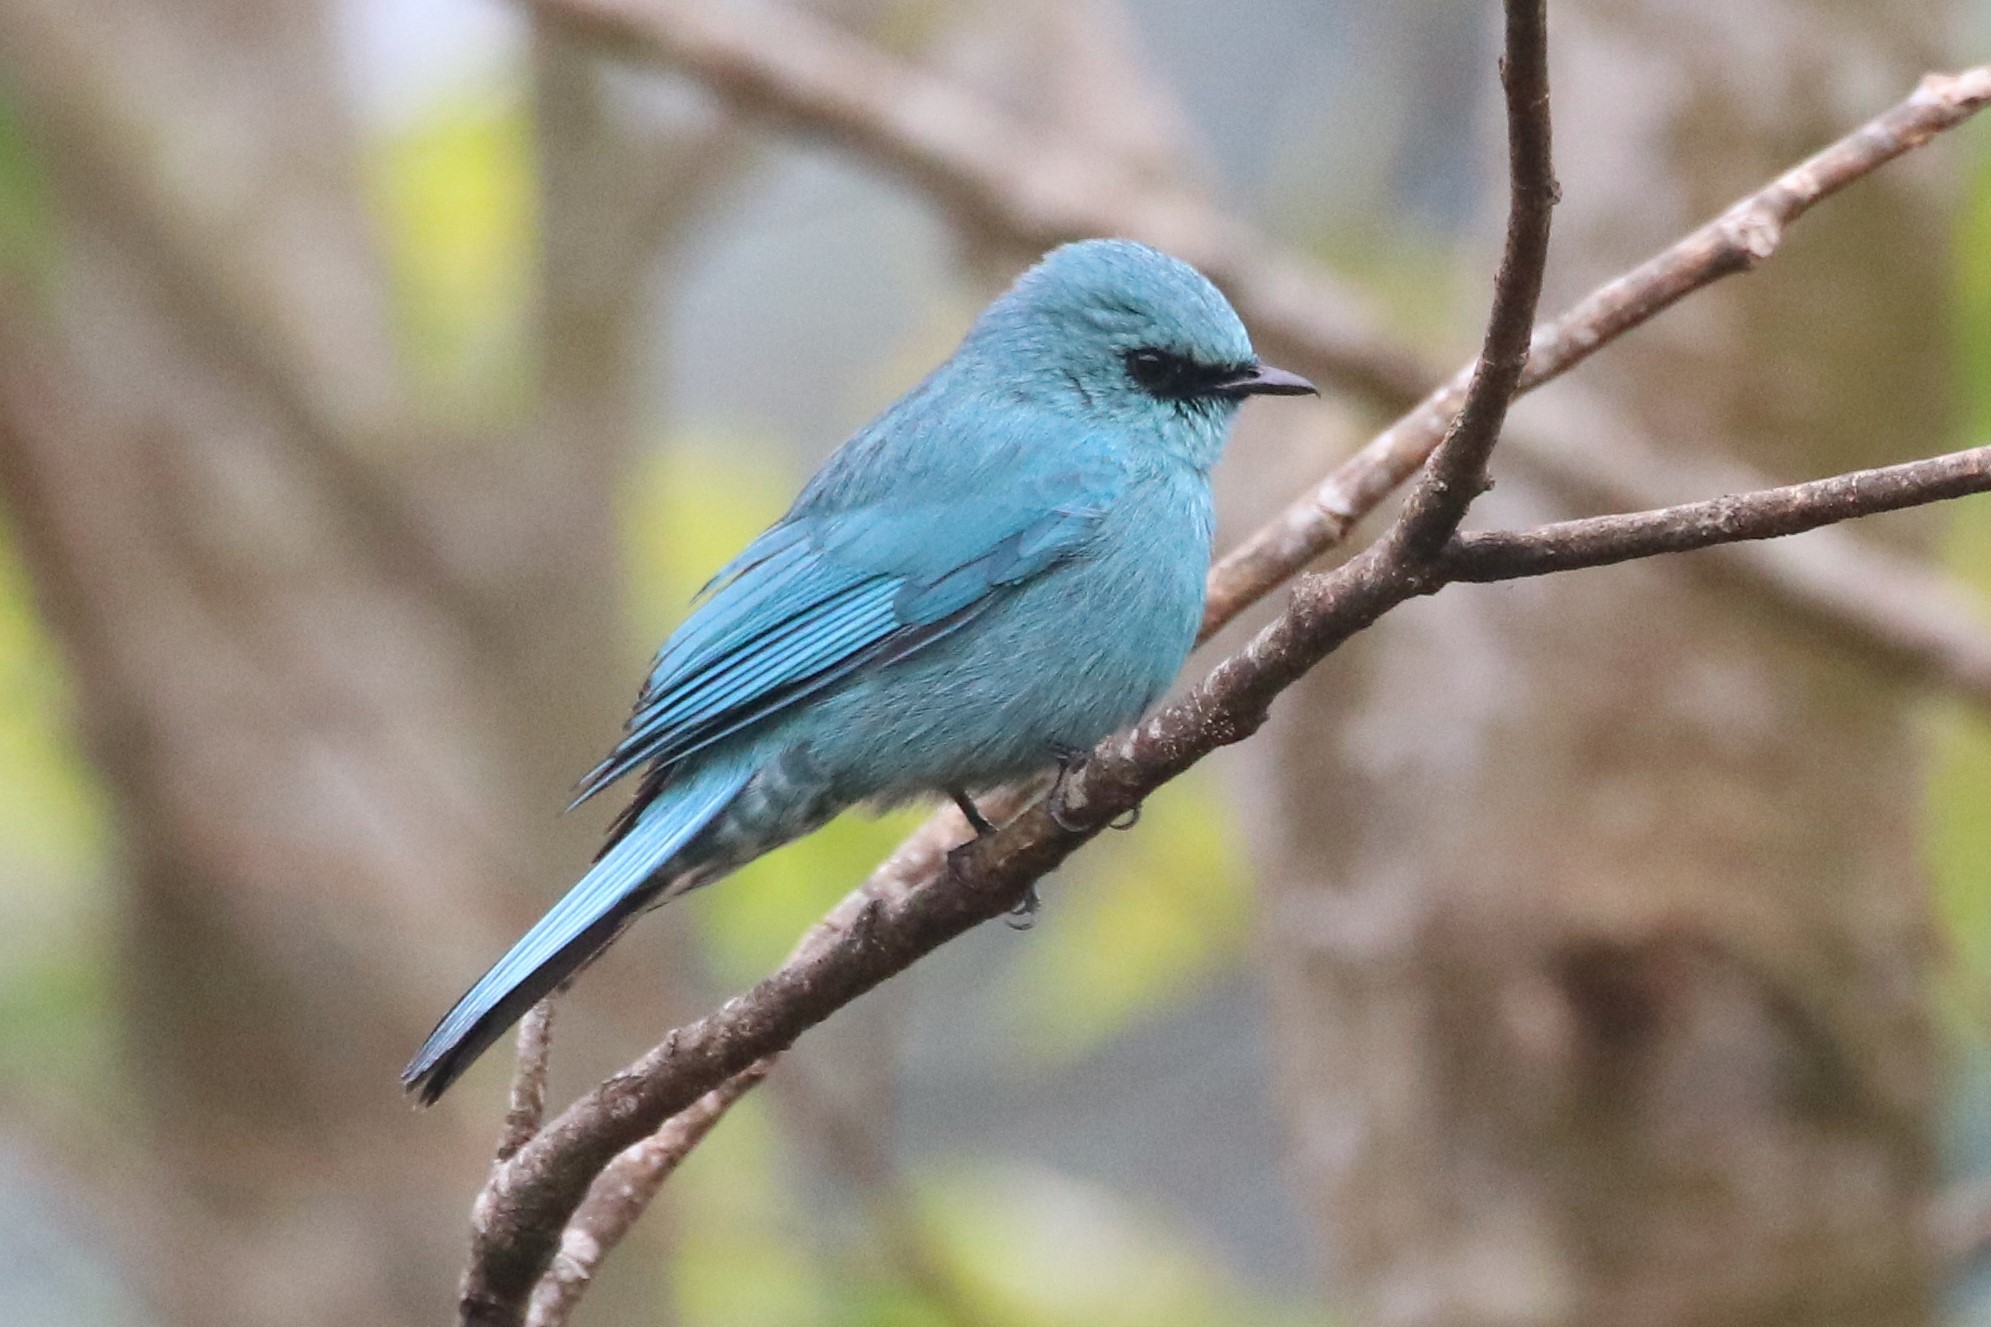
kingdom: Animalia
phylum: Chordata
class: Aves
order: Passeriformes
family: Muscicapidae
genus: Eumyias
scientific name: Eumyias thalassinus
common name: Verditer flycatcher
